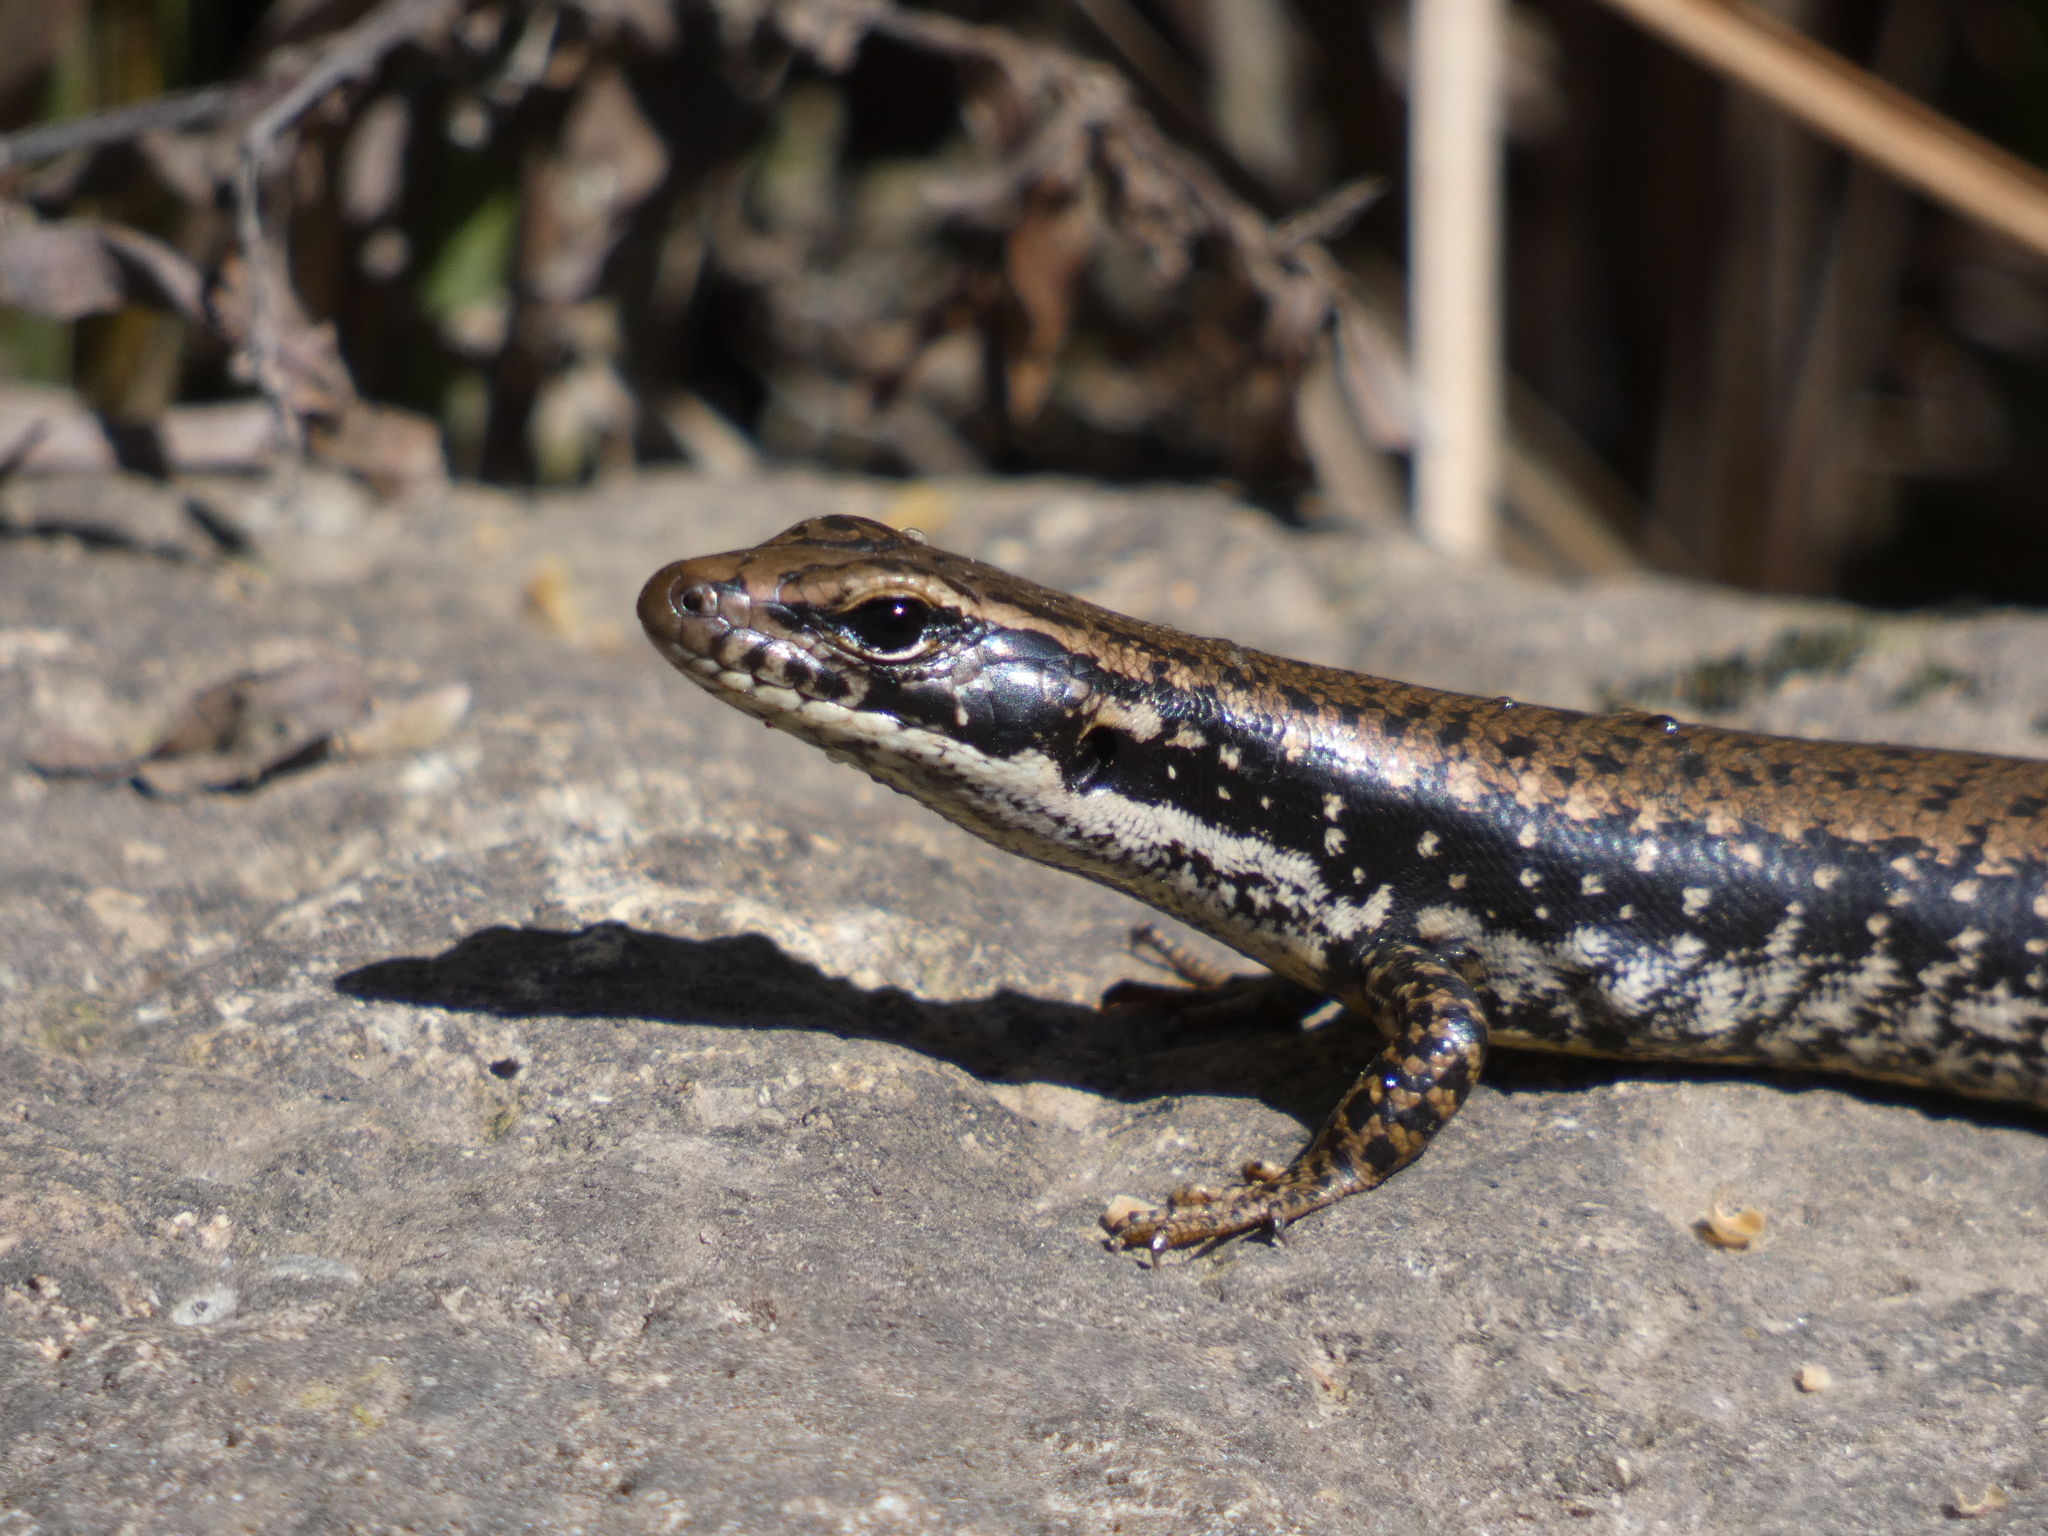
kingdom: Animalia
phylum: Chordata
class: Squamata
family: Scincidae
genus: Eulamprus
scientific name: Eulamprus heatwolei
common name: Warm-temperate water-skink
